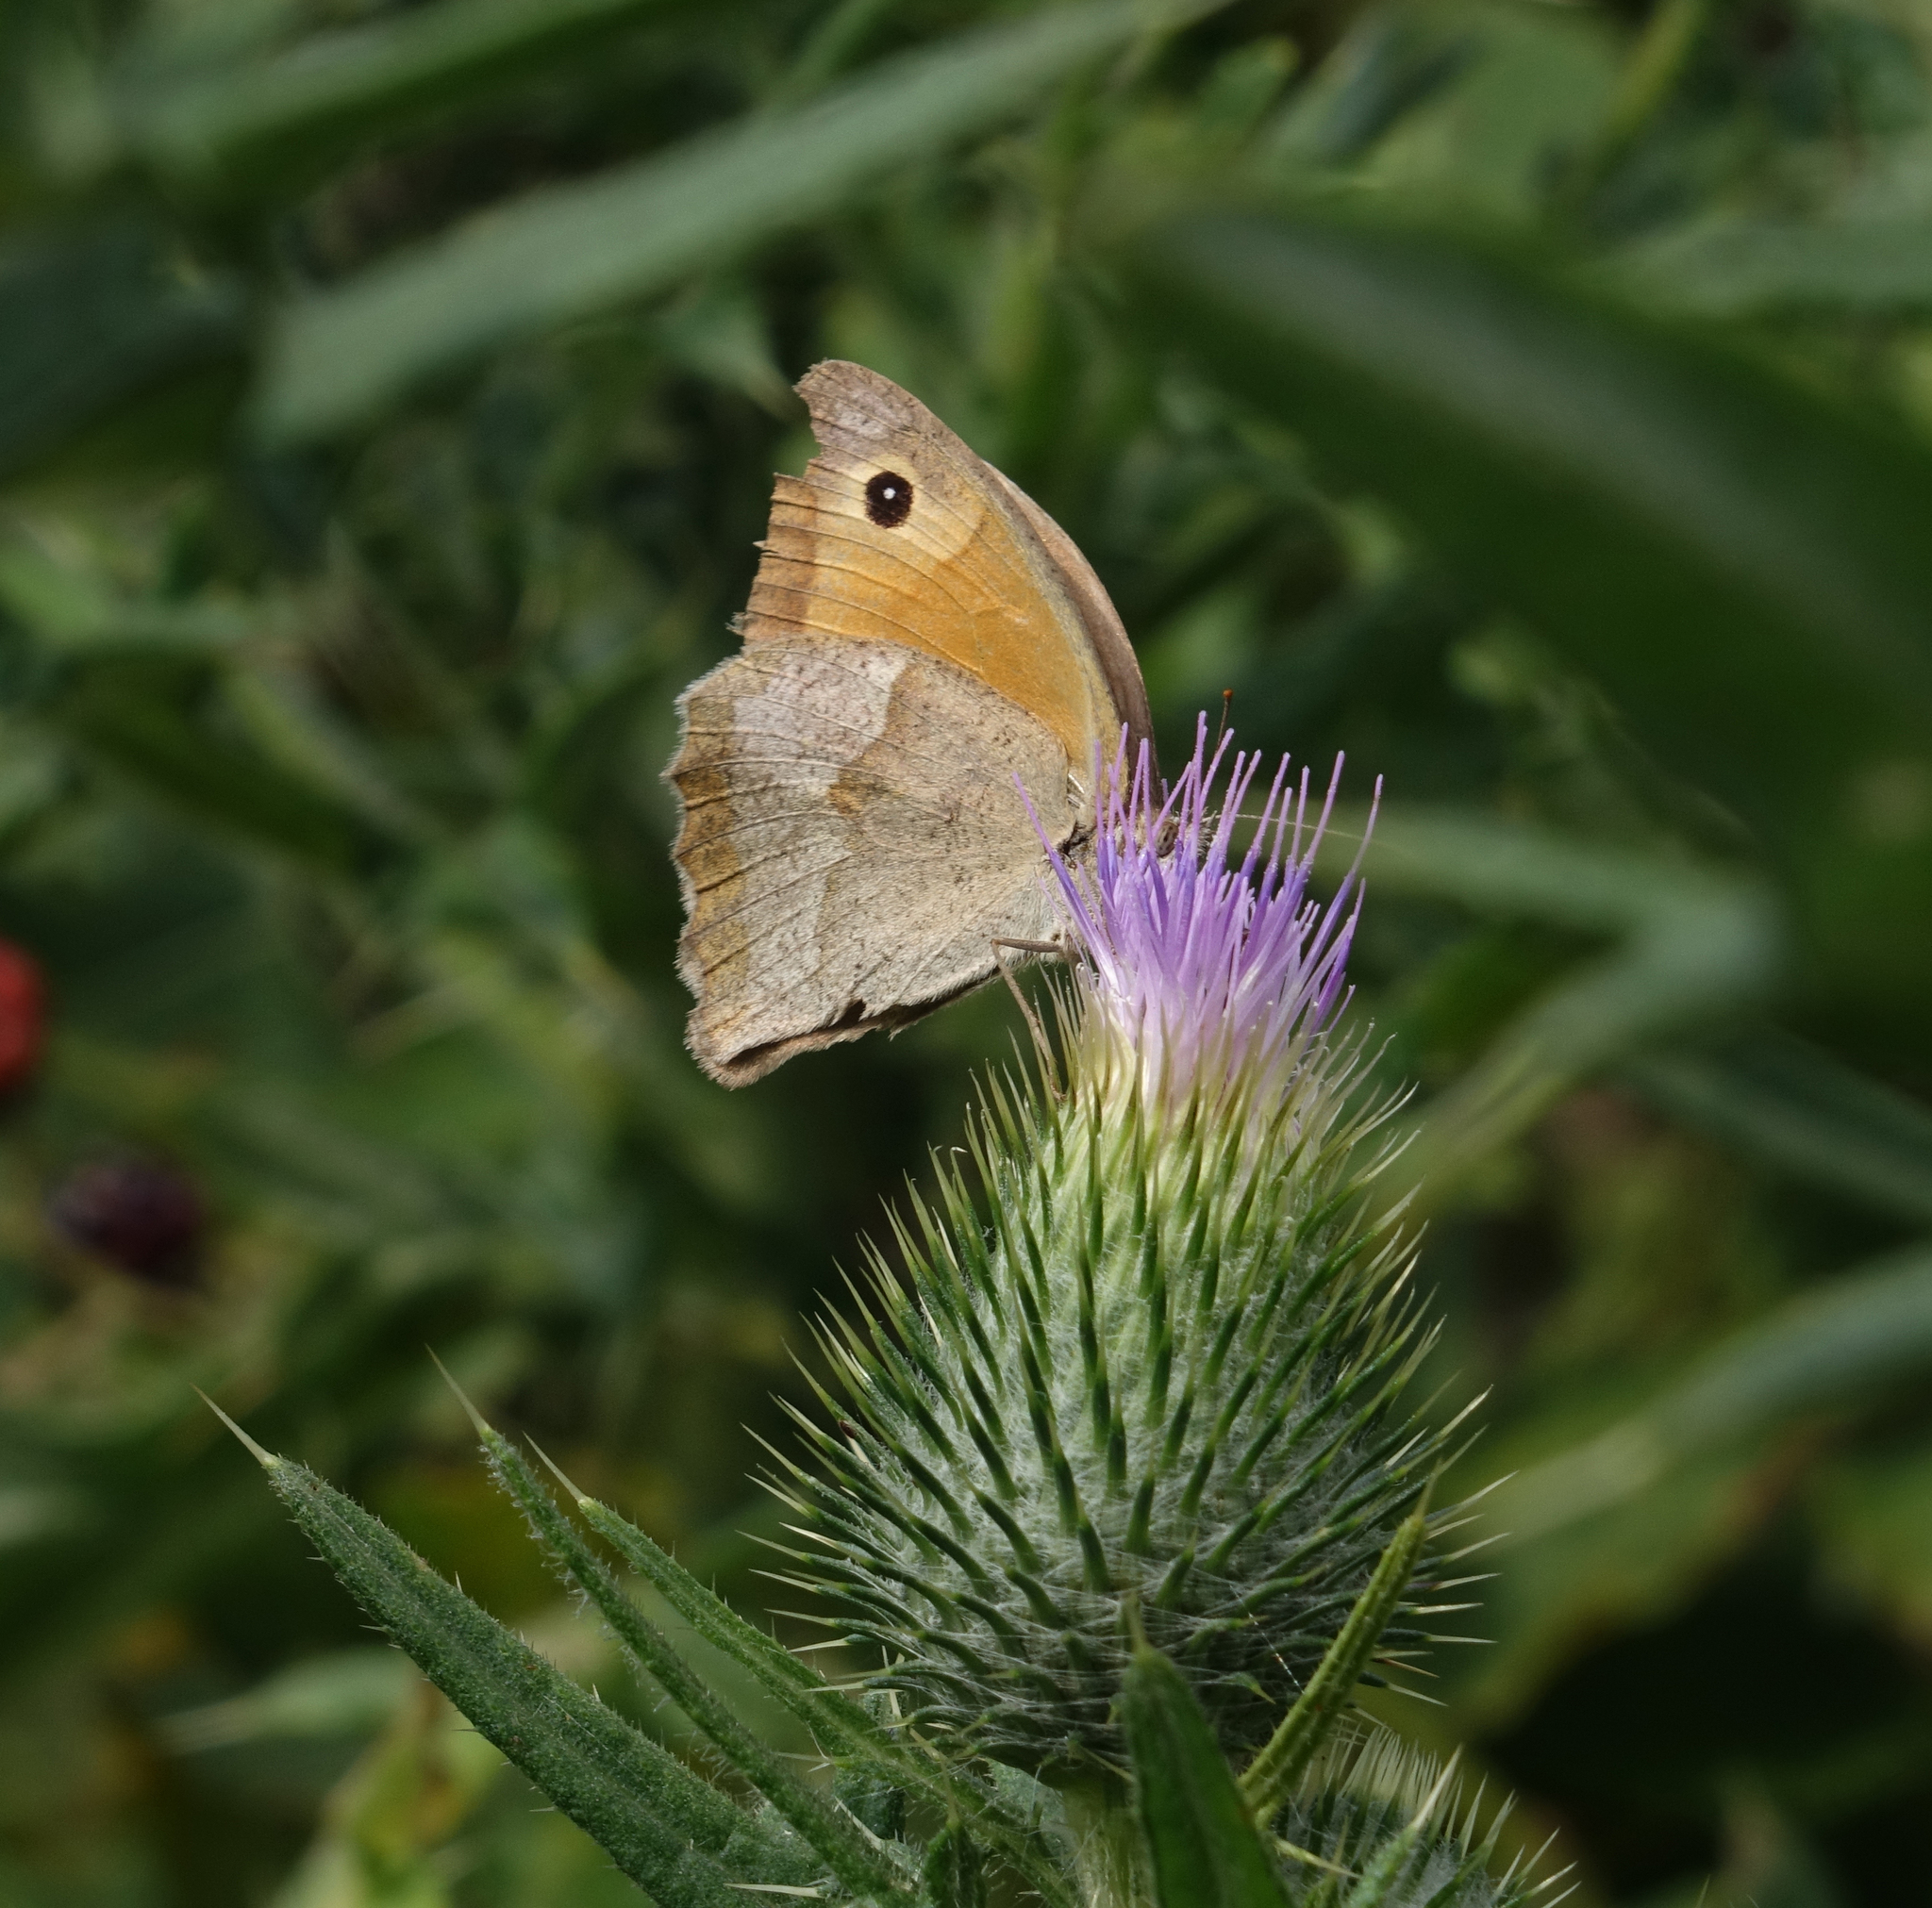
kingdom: Animalia
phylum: Arthropoda
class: Insecta
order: Lepidoptera
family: Nymphalidae
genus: Maniola
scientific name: Maniola jurtina
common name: Meadow brown
